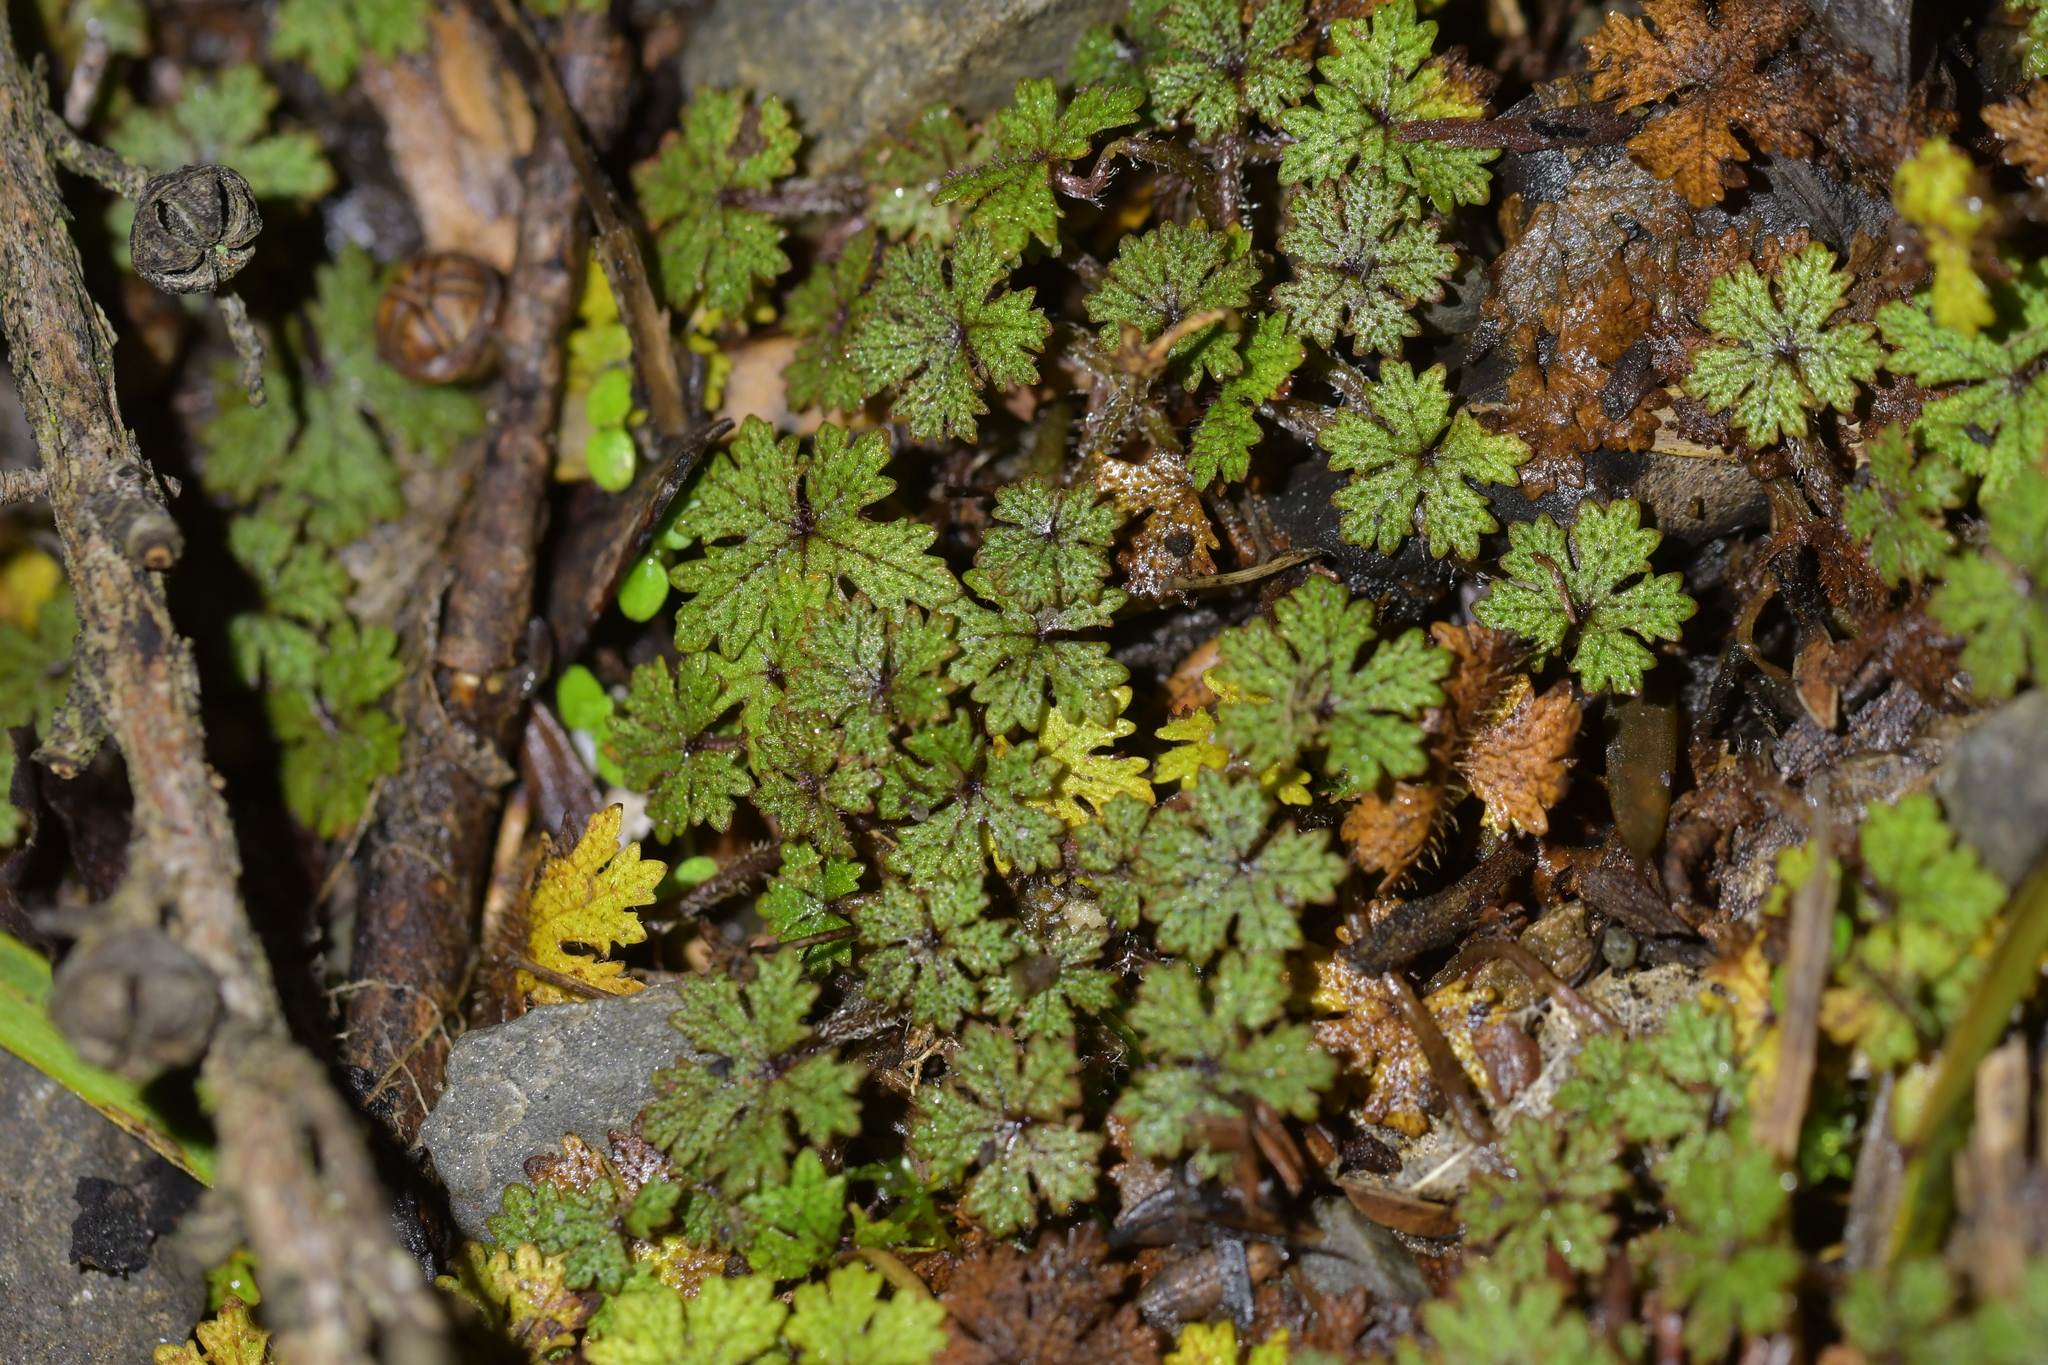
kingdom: Plantae
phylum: Tracheophyta
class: Magnoliopsida
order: Apiales
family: Araliaceae
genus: Hydrocotyle
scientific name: Hydrocotyle dissecta
